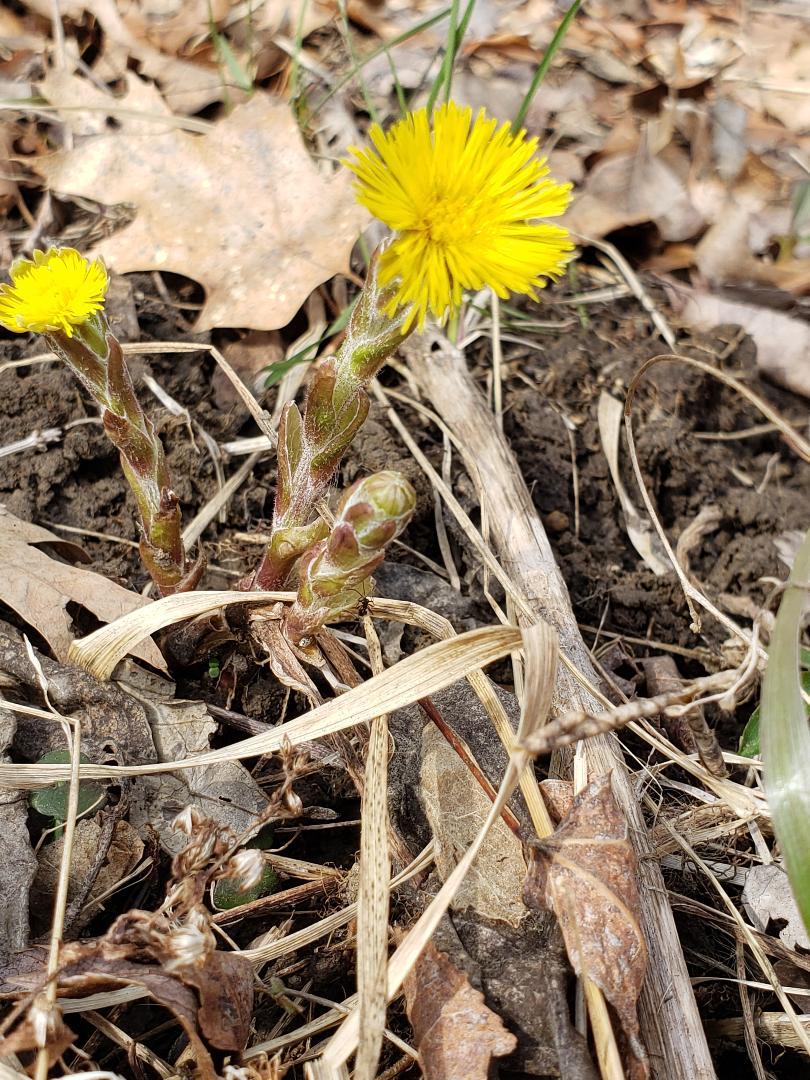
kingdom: Plantae
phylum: Tracheophyta
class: Magnoliopsida
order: Asterales
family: Asteraceae
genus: Tussilago
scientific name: Tussilago farfara
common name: Coltsfoot
